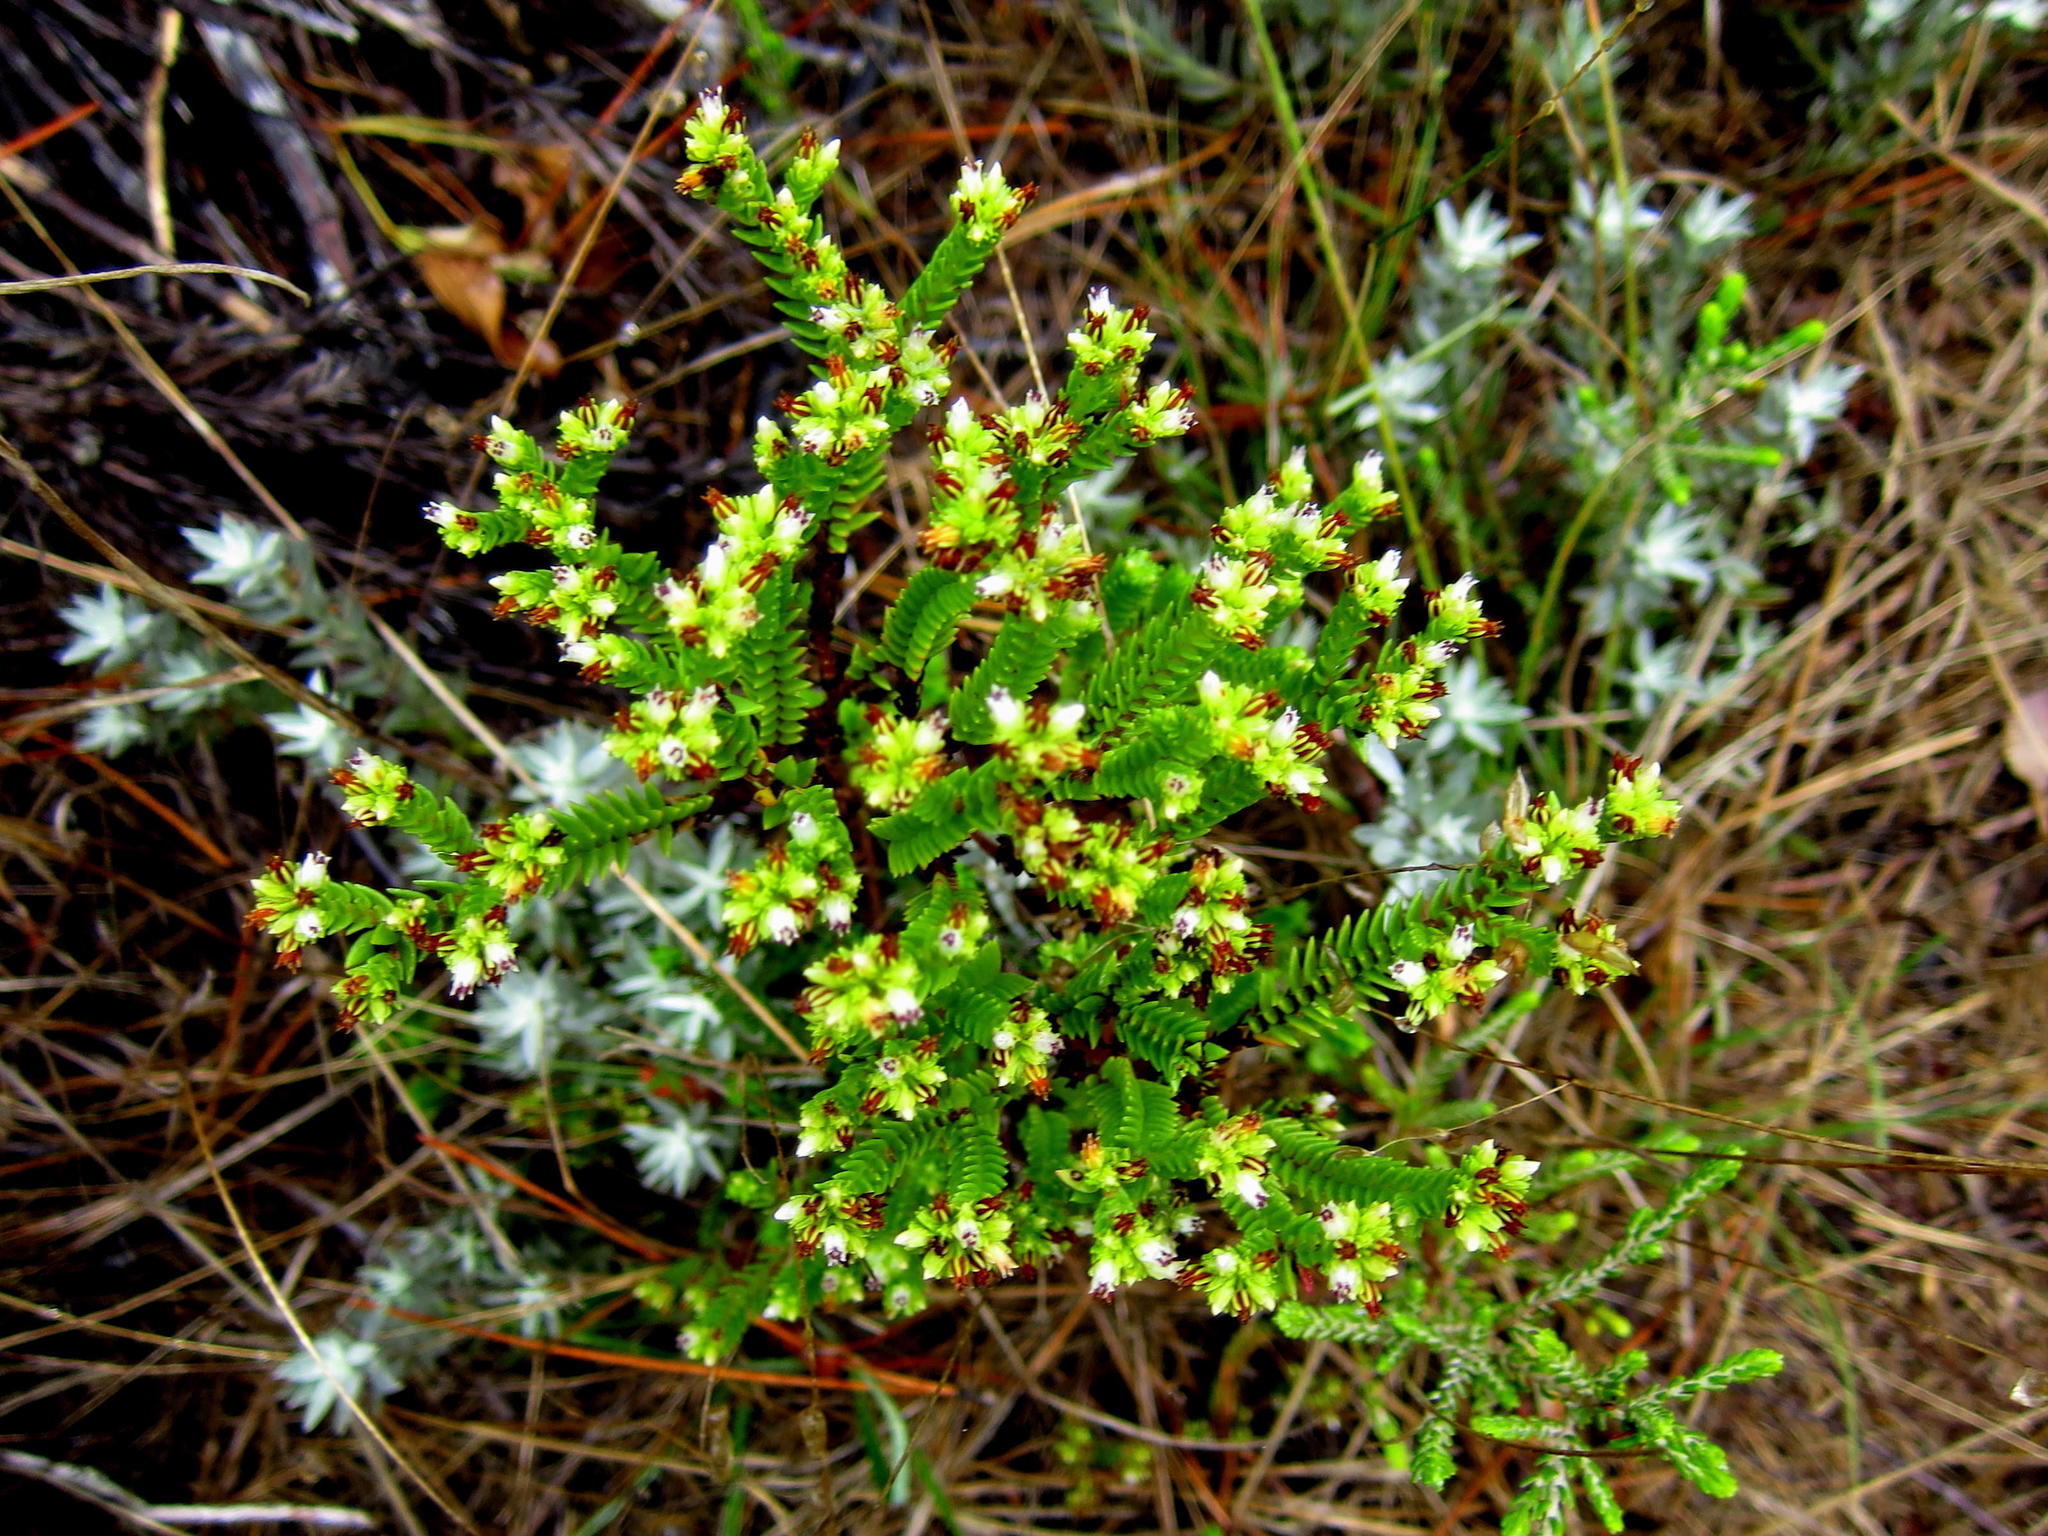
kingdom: Plantae
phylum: Tracheophyta
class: Magnoliopsida
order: Saxifragales
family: Crassulaceae
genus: Crassula
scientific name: Crassula ericoides
